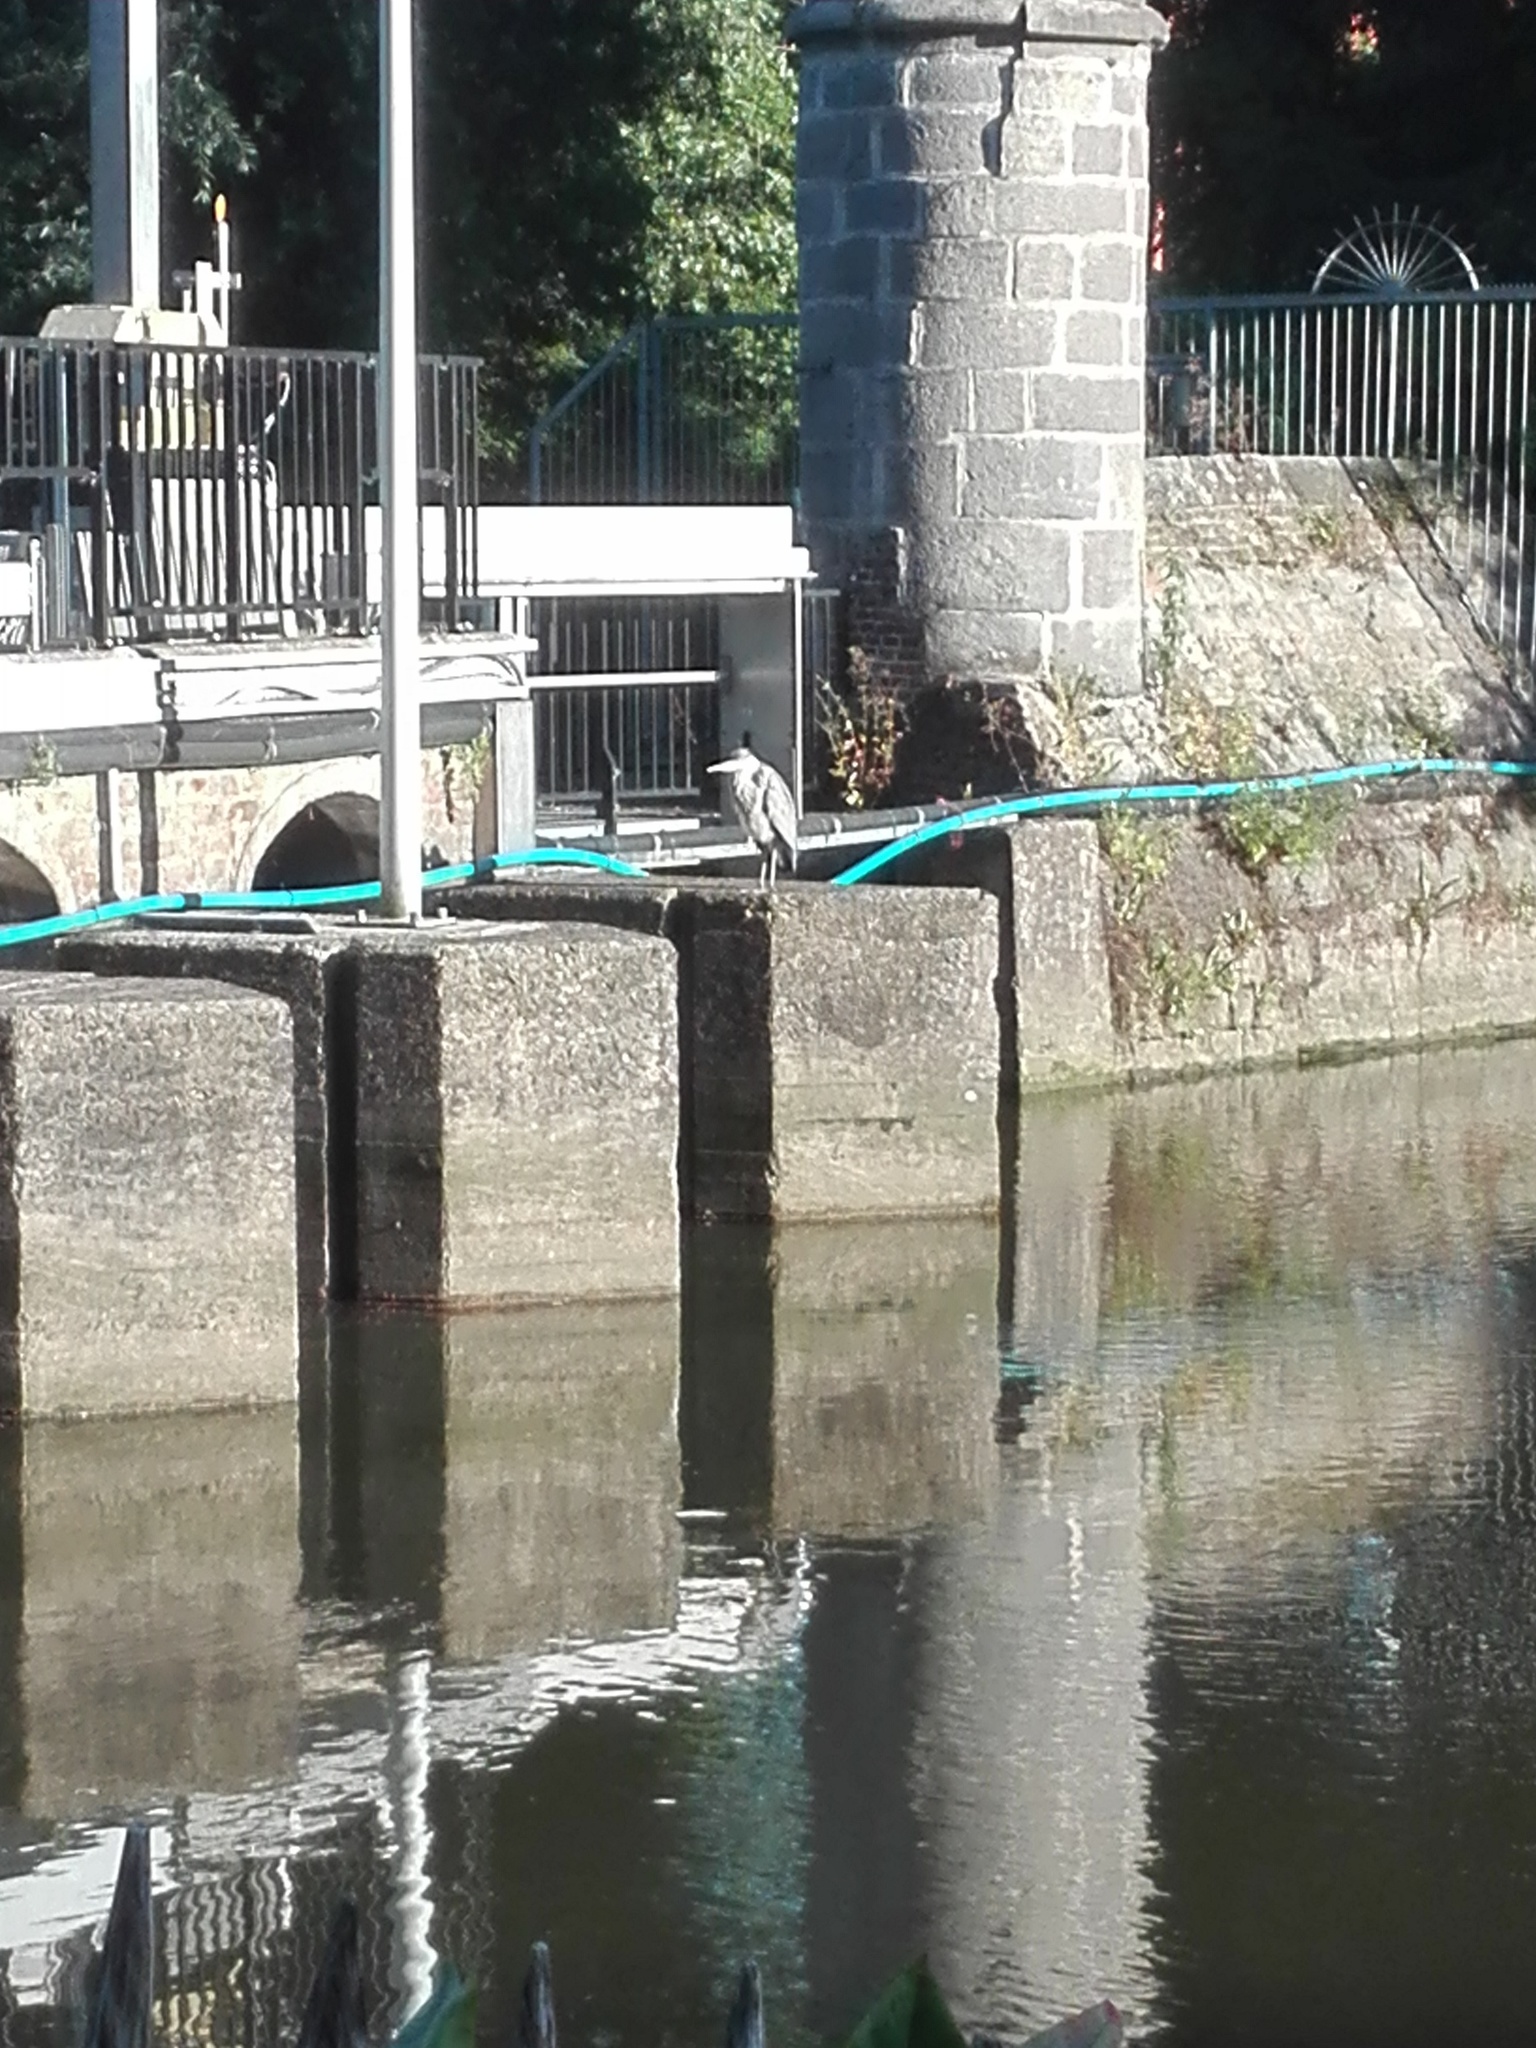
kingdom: Animalia
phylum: Chordata
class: Aves
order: Pelecaniformes
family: Ardeidae
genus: Ardea
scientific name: Ardea cinerea
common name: Grey heron
